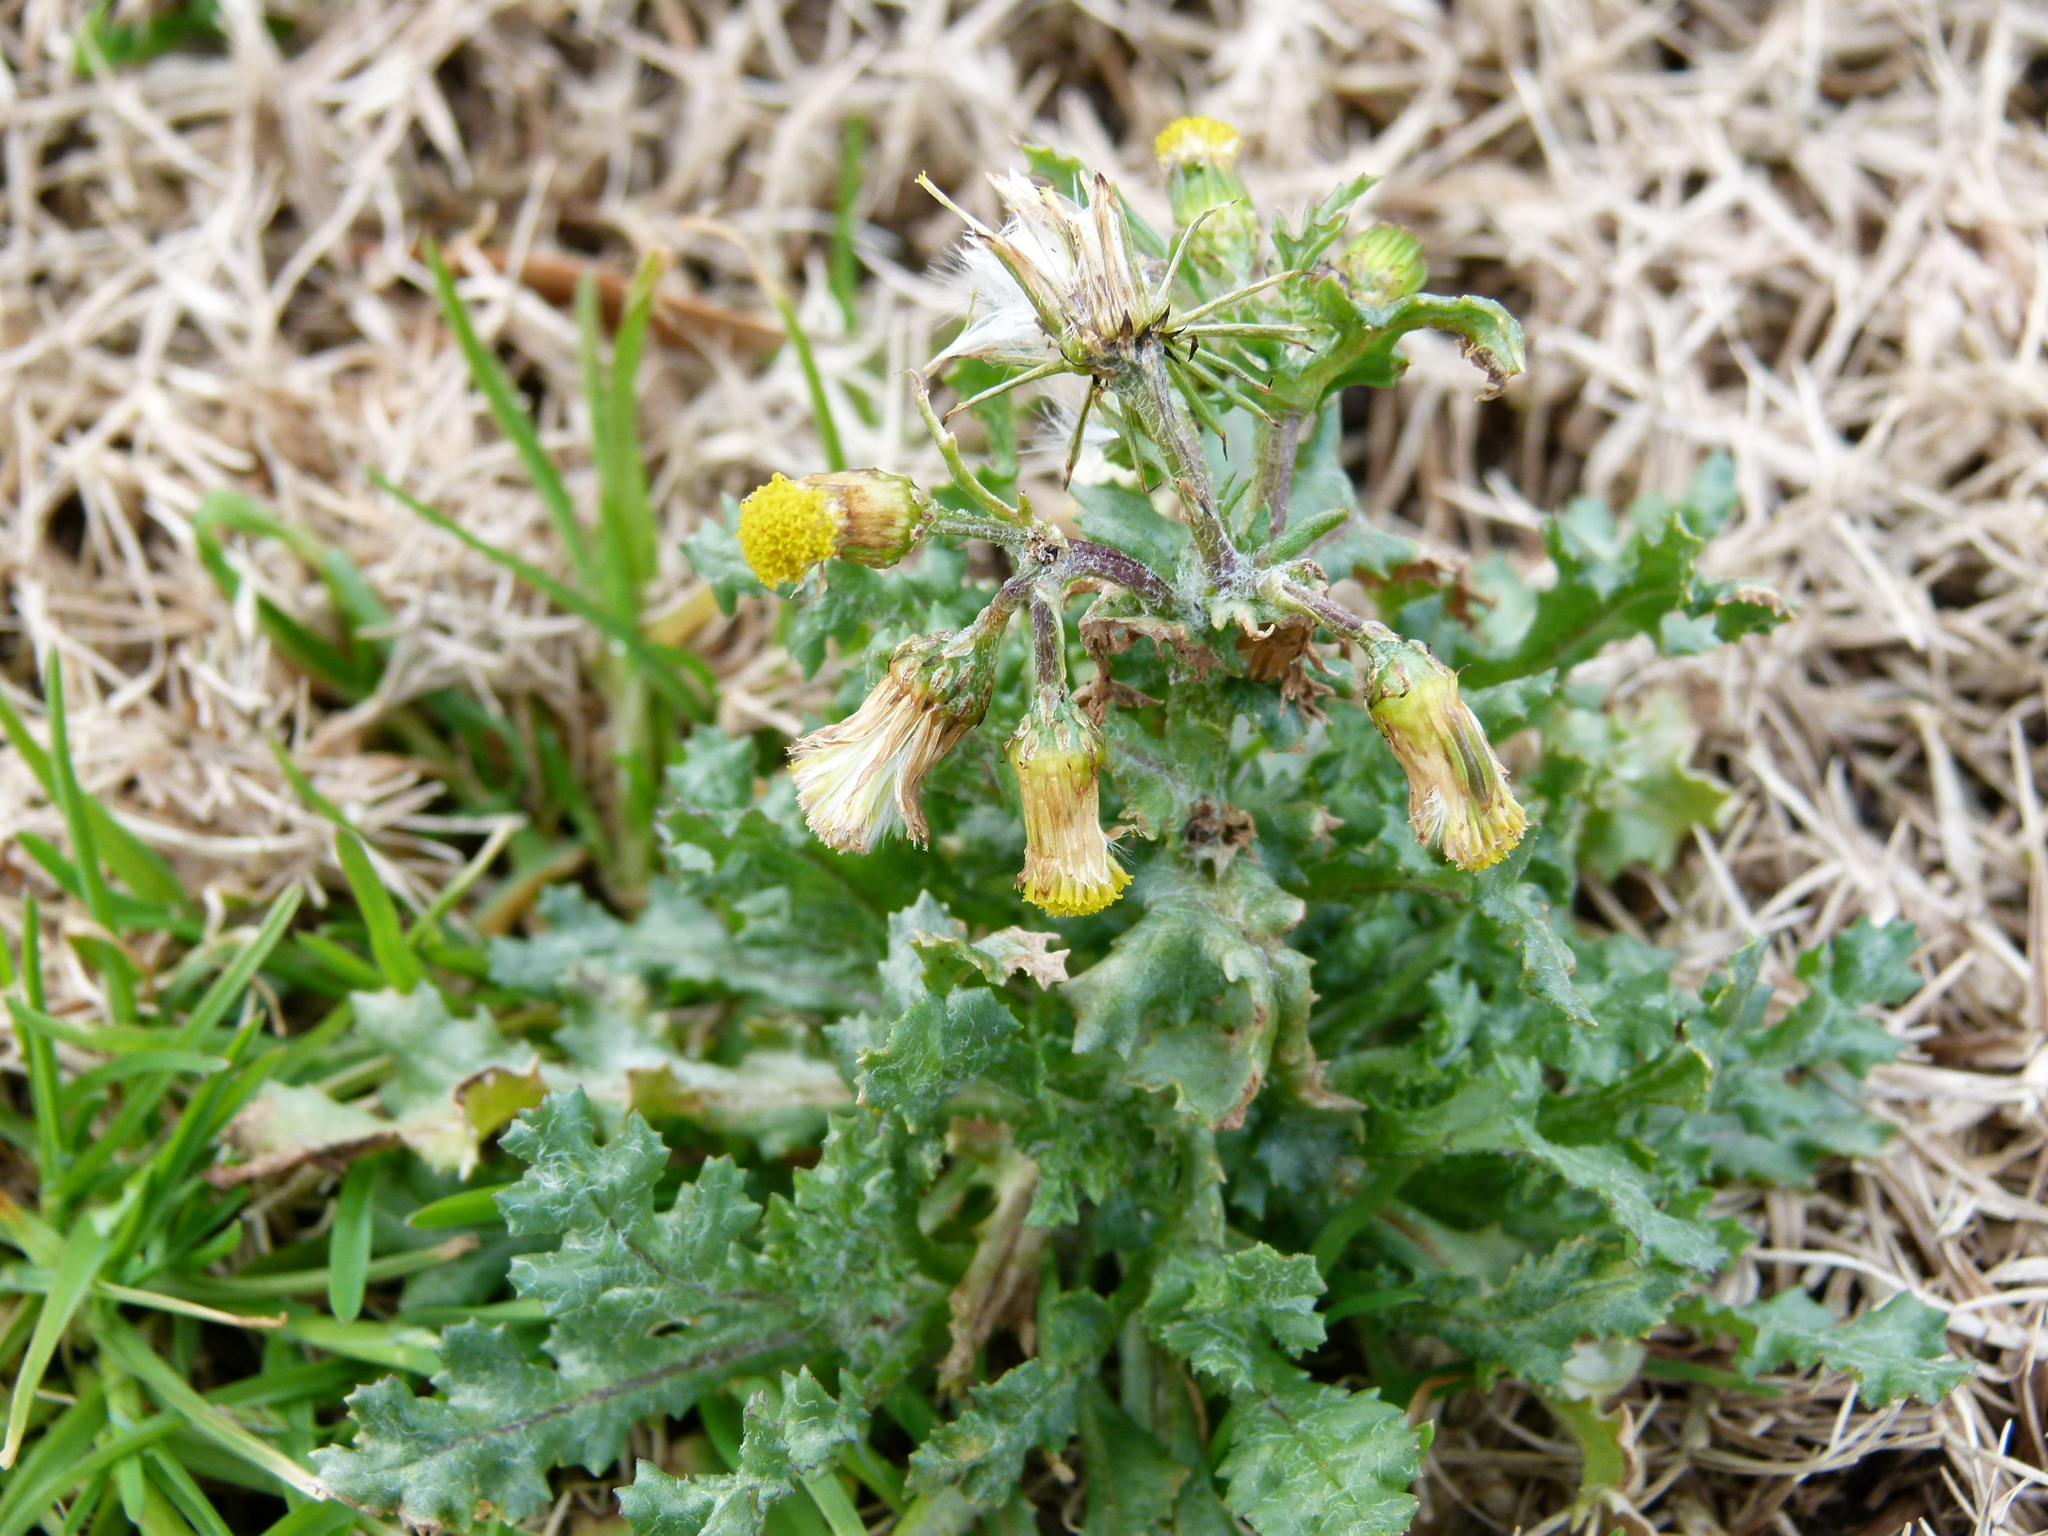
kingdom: Plantae
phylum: Tracheophyta
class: Magnoliopsida
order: Asterales
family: Asteraceae
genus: Senecio
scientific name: Senecio vulgaris
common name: Old-man-in-the-spring
